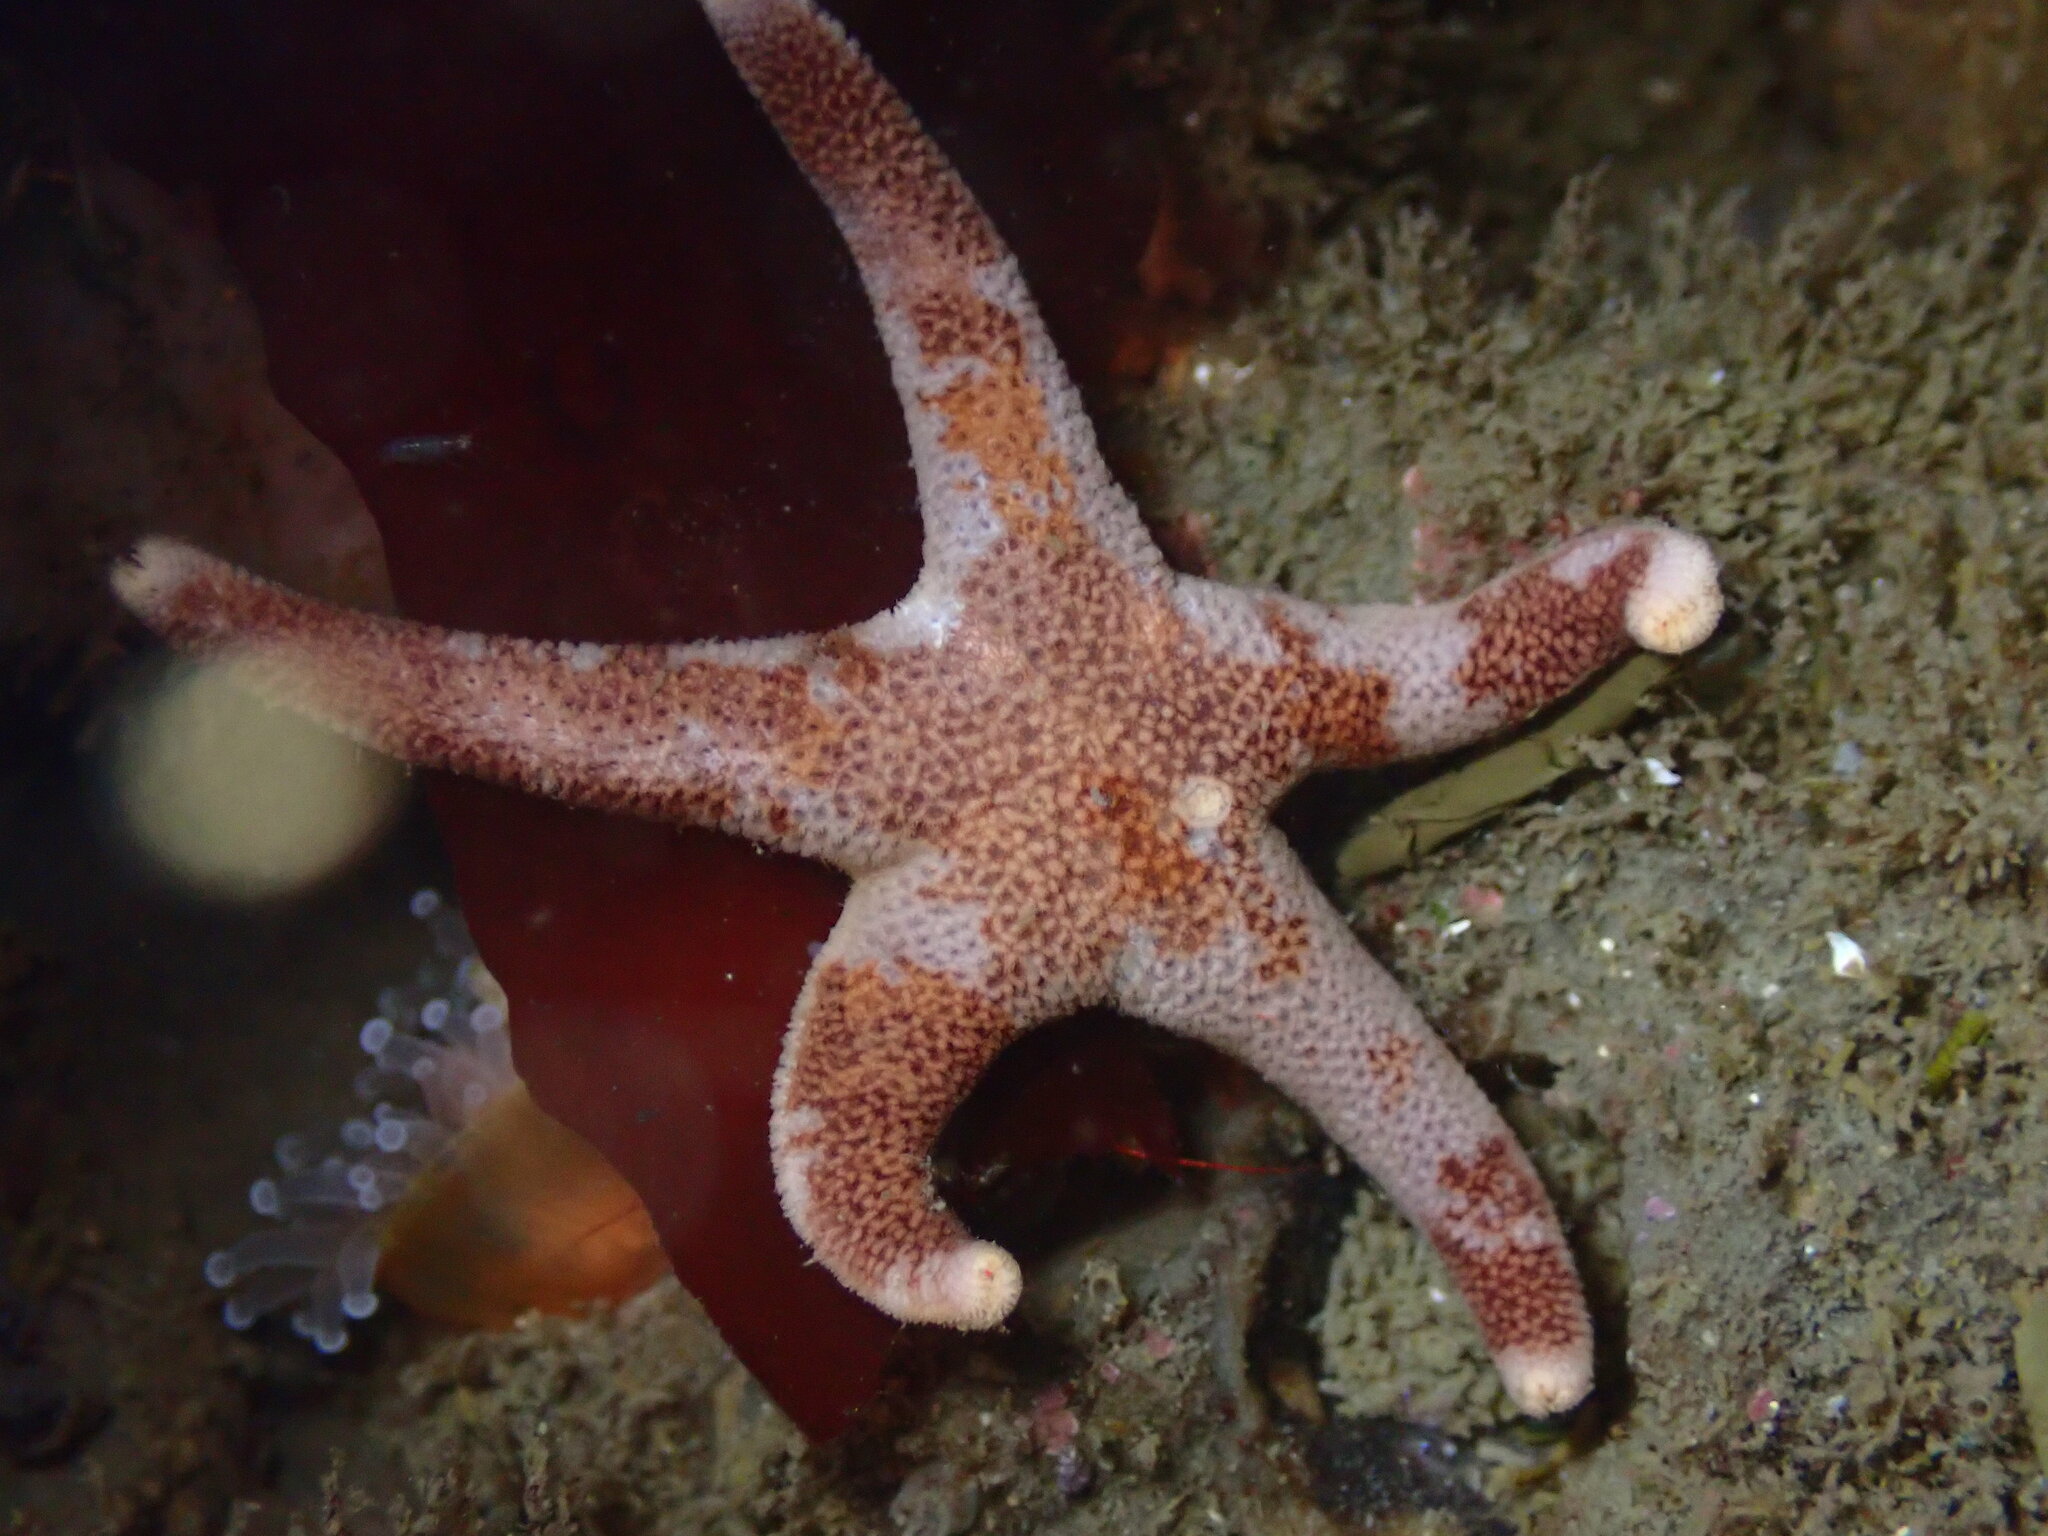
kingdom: Animalia
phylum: Echinodermata
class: Asteroidea
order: Spinulosida
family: Echinasteridae
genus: Henricia
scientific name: Henricia pumila
